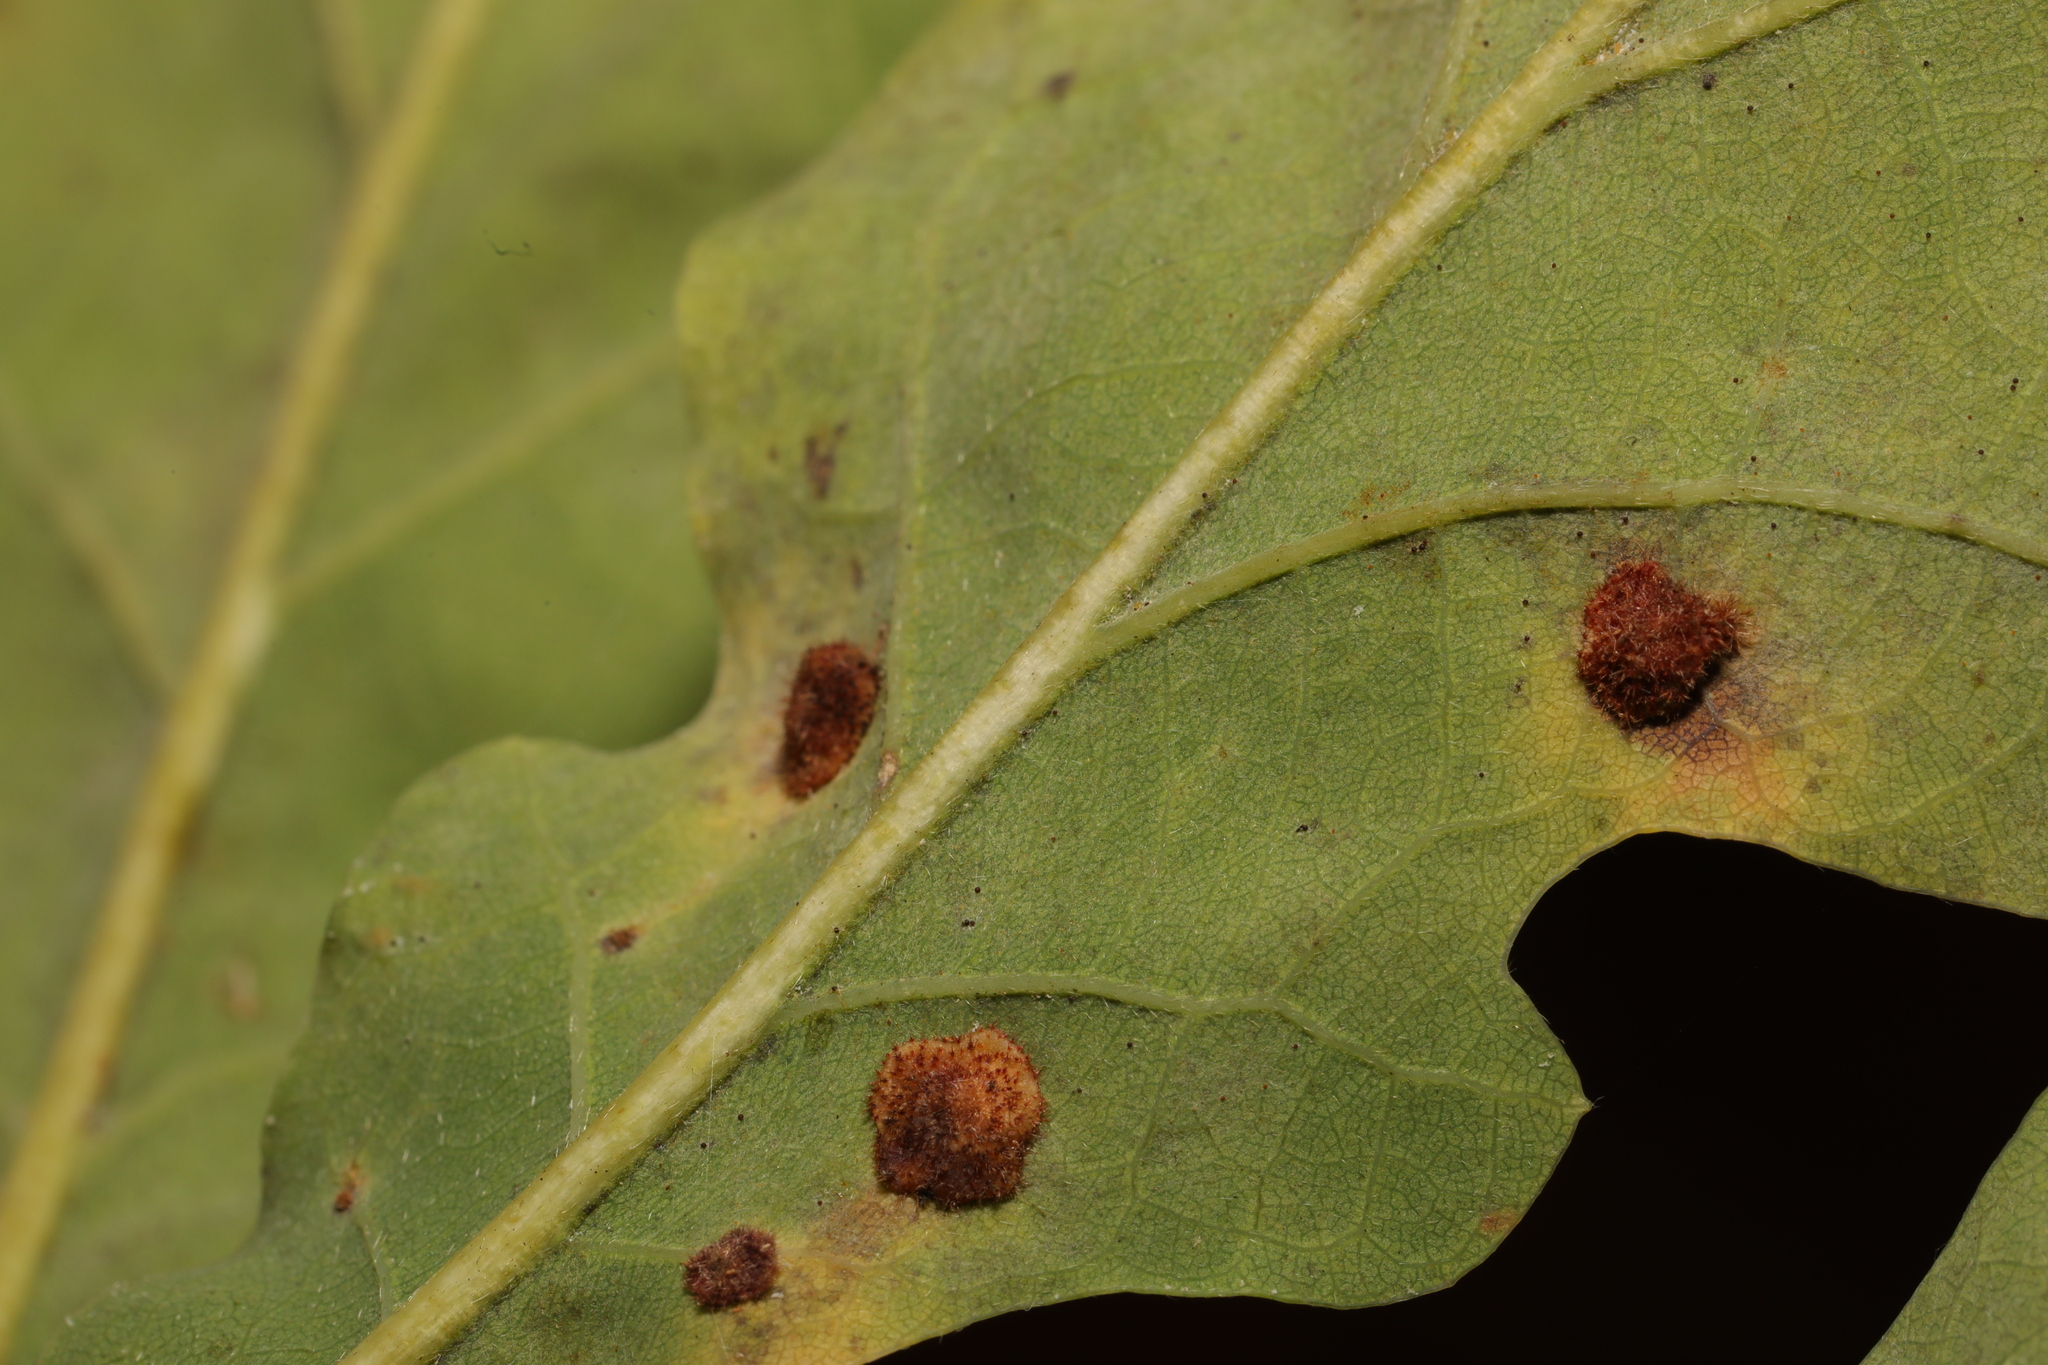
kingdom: Animalia
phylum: Arthropoda
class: Insecta
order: Hymenoptera
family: Cynipidae
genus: Neuroterus
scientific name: Neuroterus quercusbaccarum
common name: Common spangle gall
